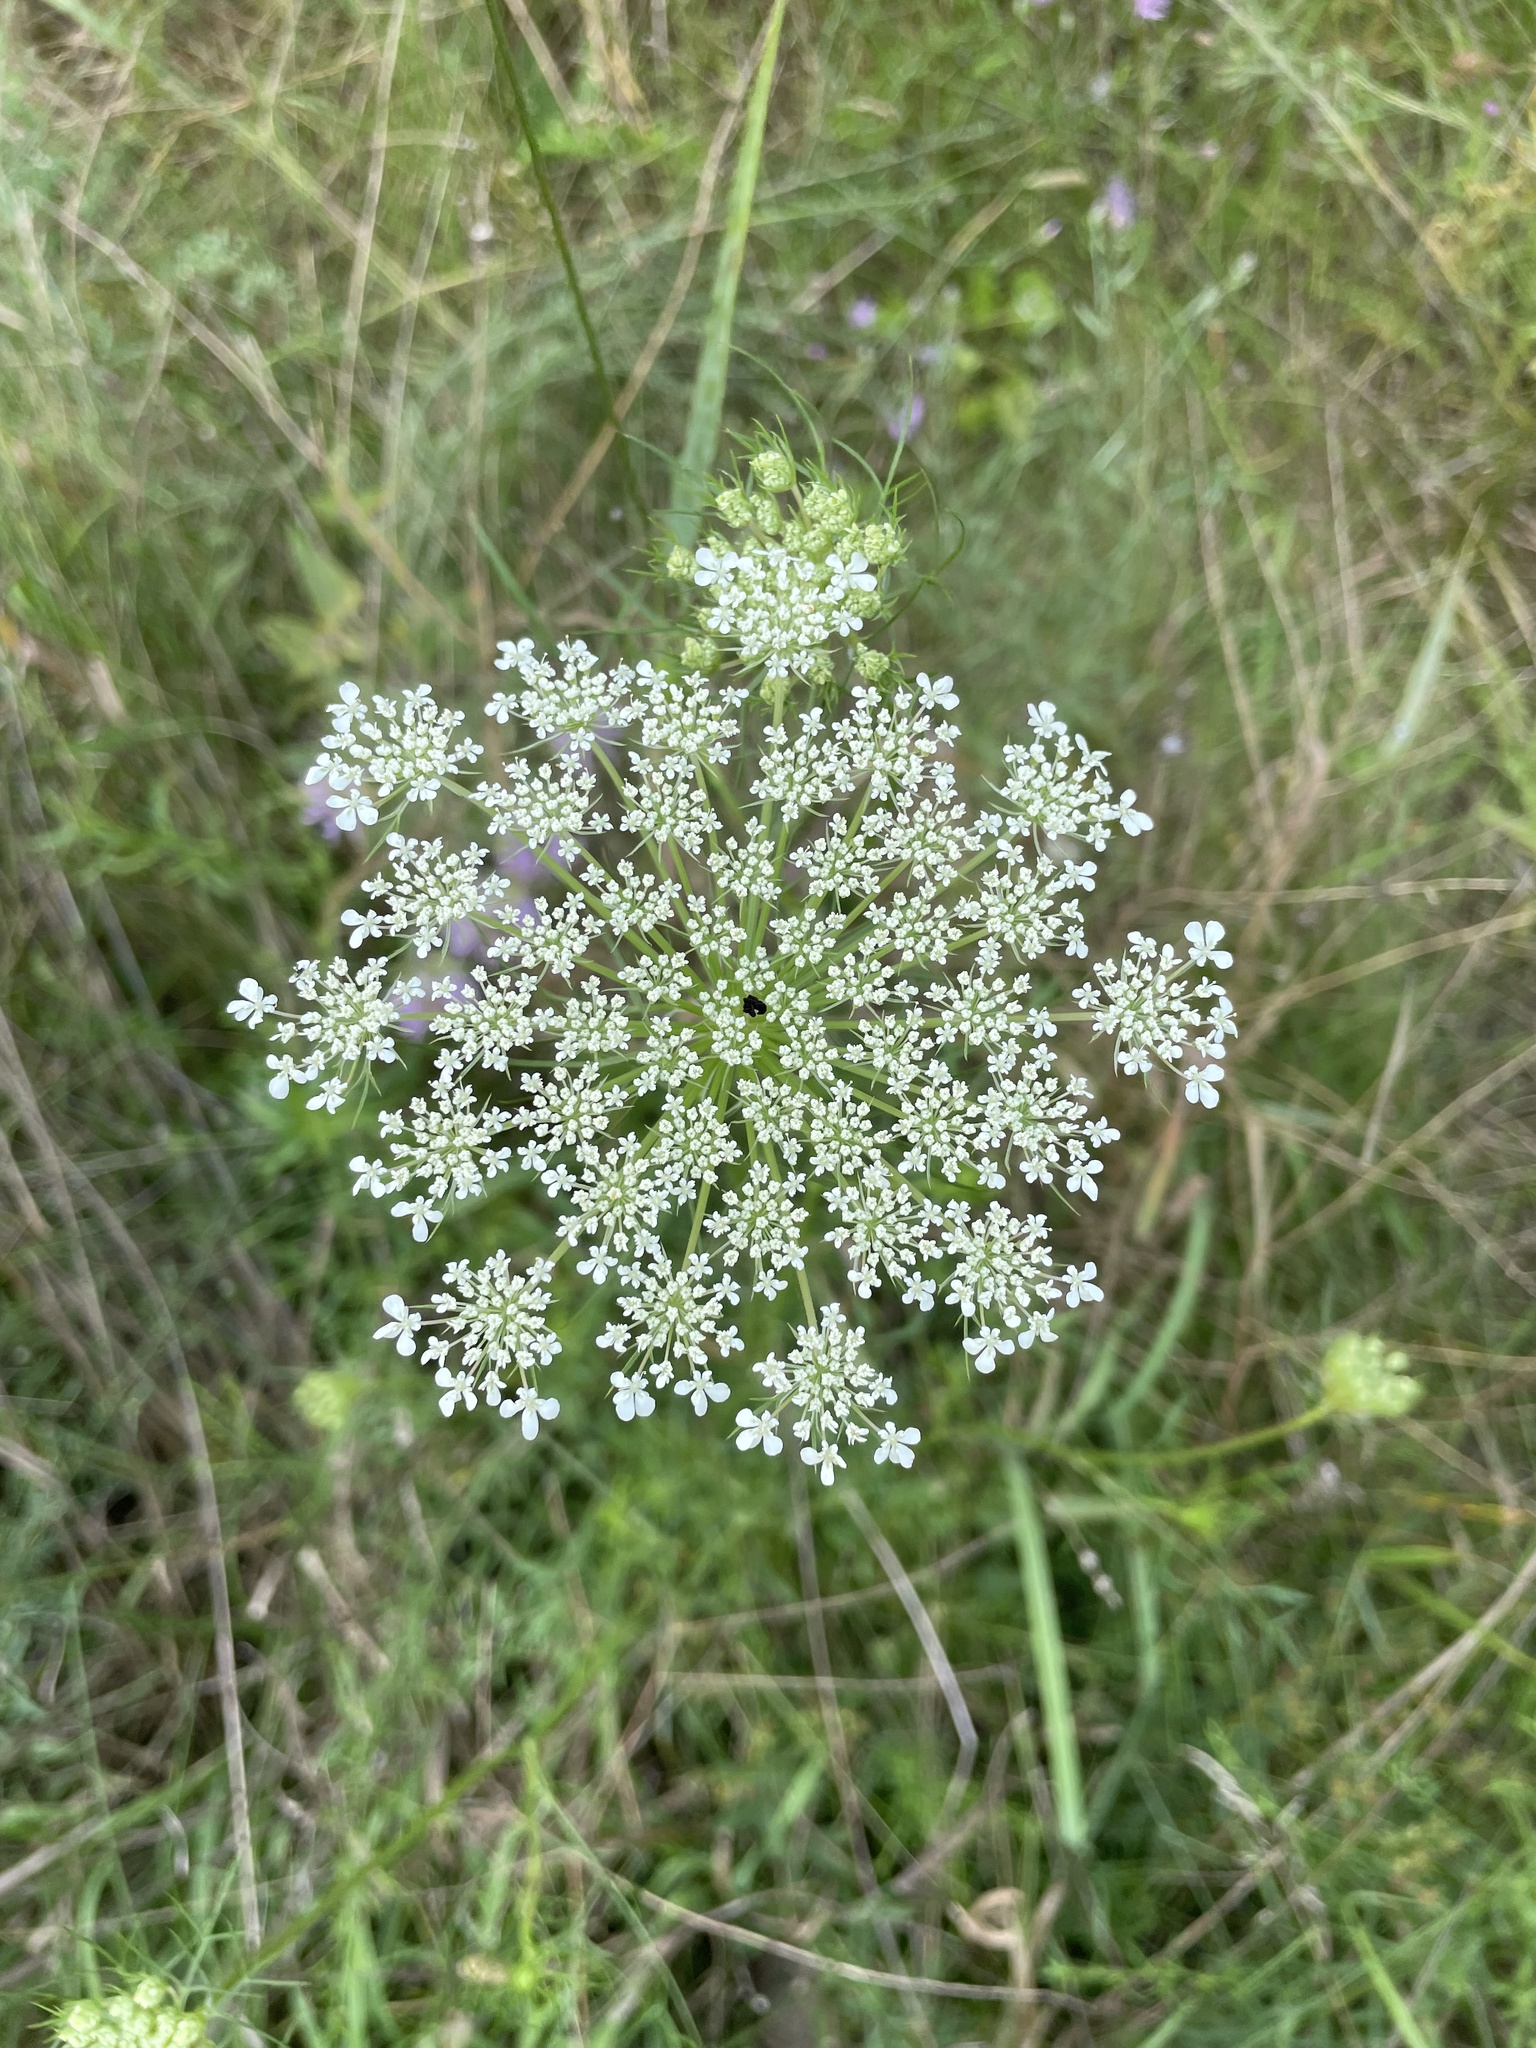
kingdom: Plantae
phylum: Tracheophyta
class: Magnoliopsida
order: Apiales
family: Apiaceae
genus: Daucus
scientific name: Daucus carota
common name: Wild carrot
